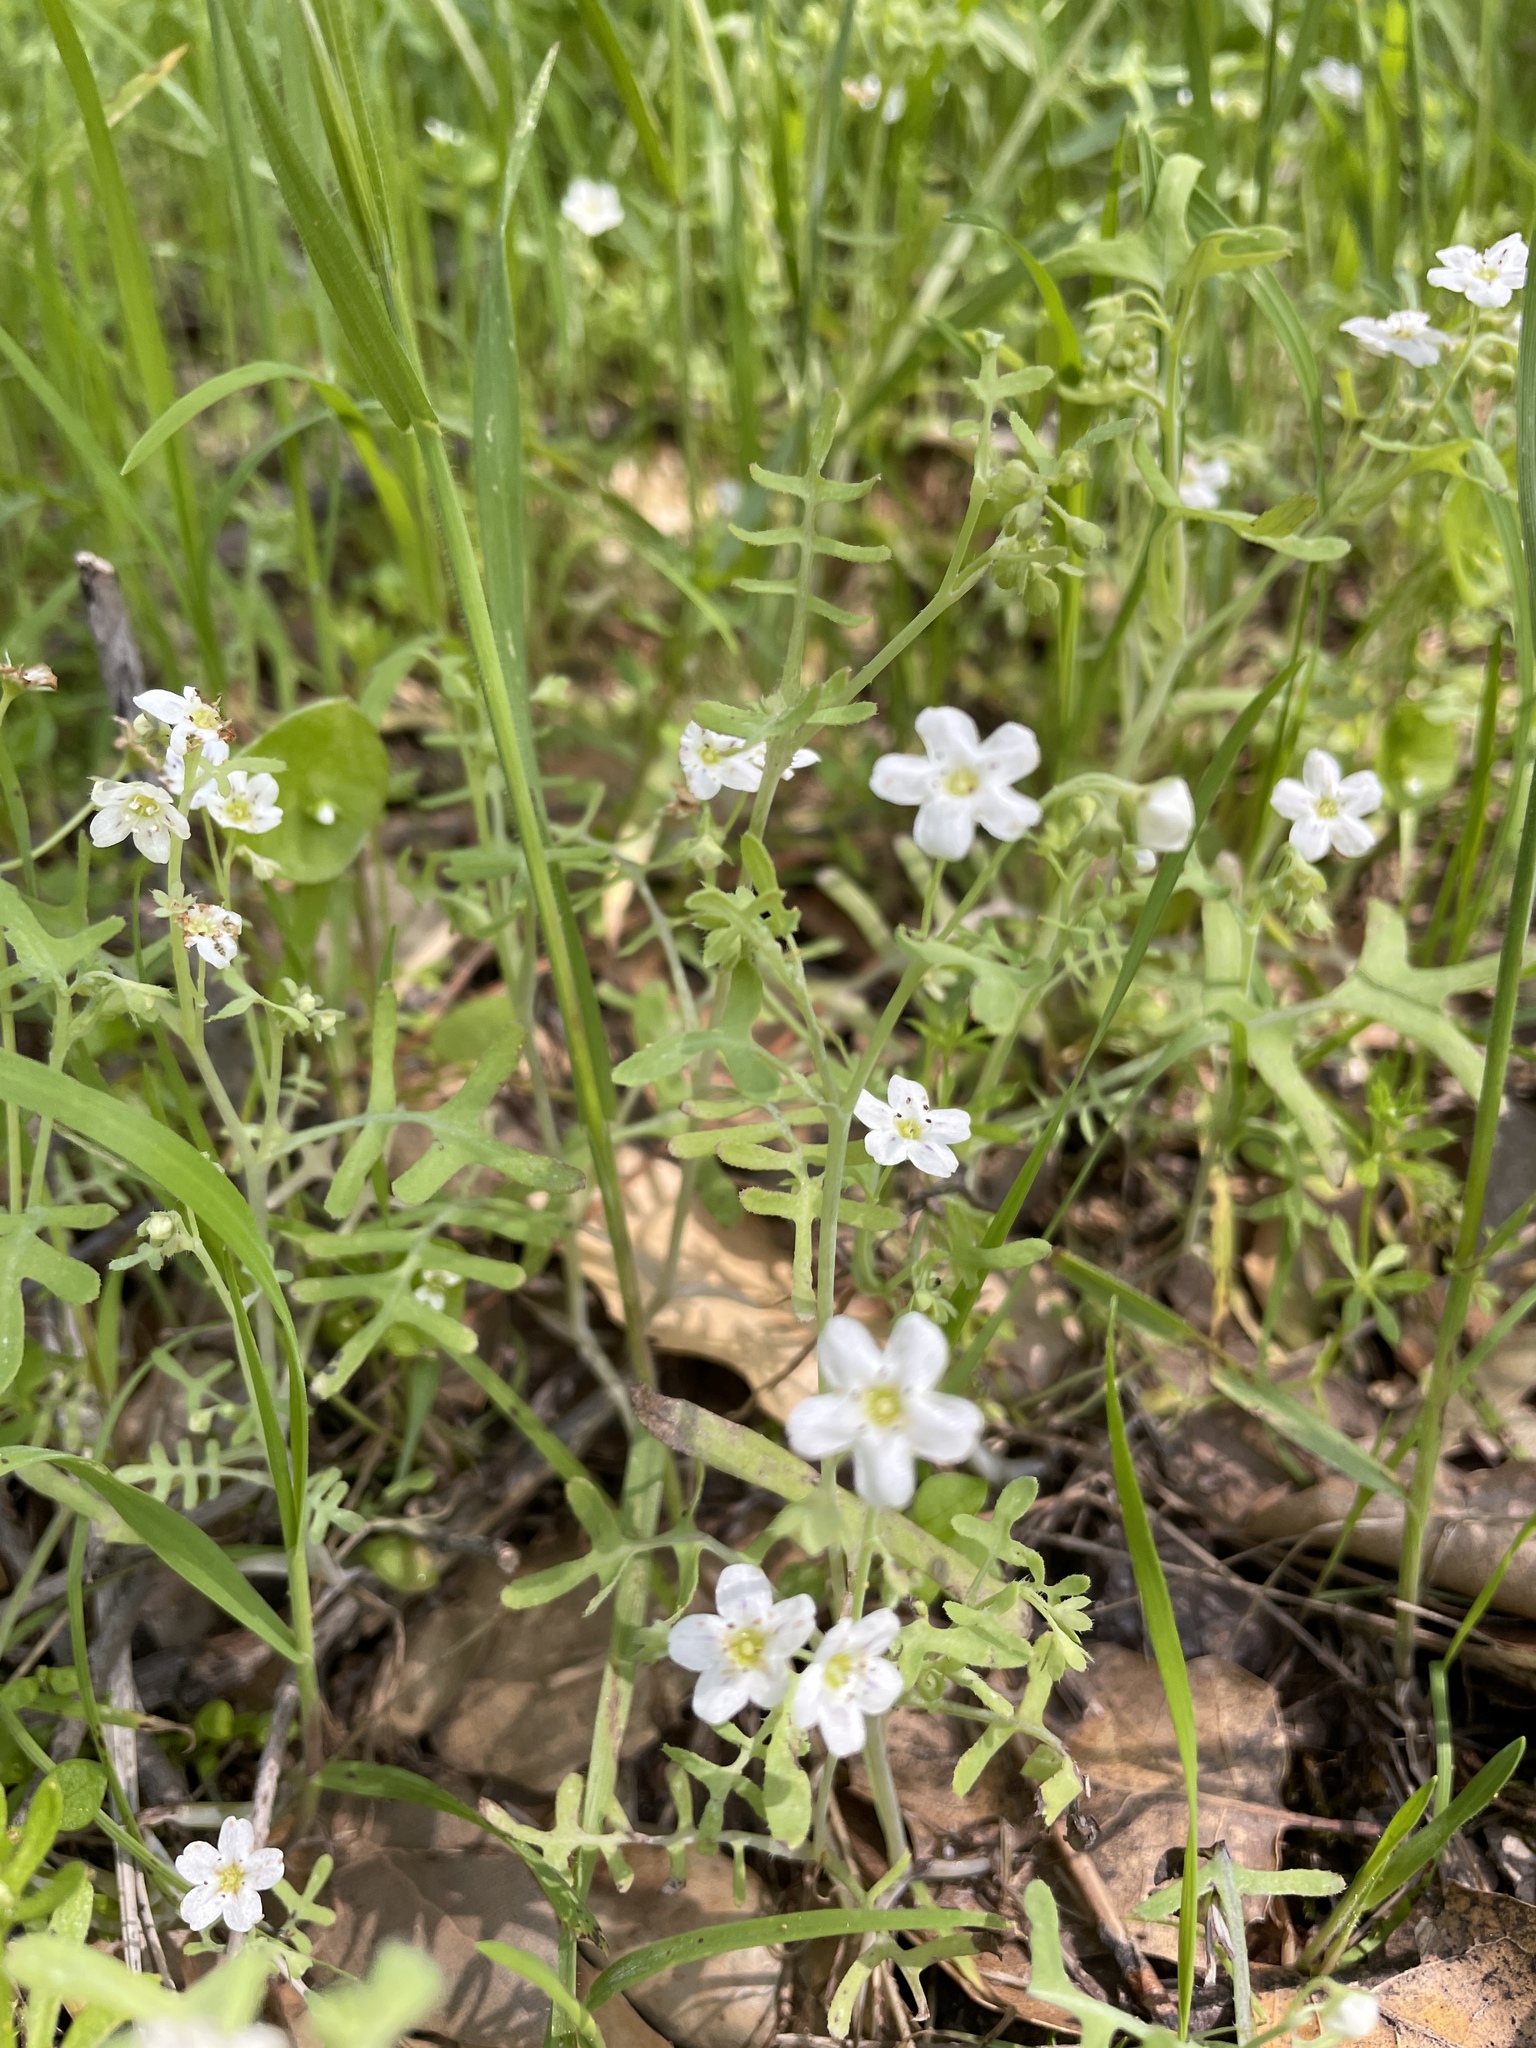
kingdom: Plantae
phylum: Tracheophyta
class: Magnoliopsida
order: Boraginales
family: Hydrophyllaceae
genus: Pholistoma
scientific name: Pholistoma membranaceum
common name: White fiesta-flower
